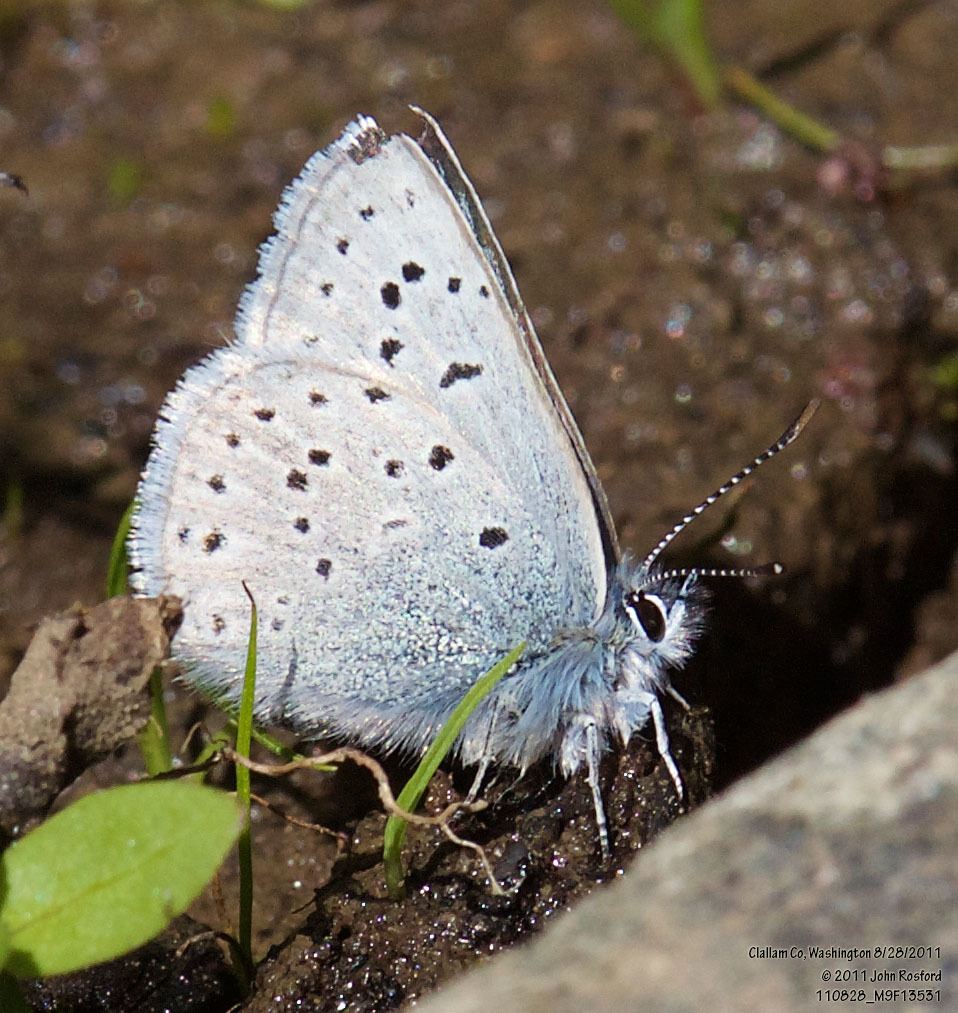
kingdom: Animalia
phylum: Arthropoda
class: Insecta
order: Lepidoptera
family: Lycaenidae
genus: Icaricia
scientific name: Icaricia saepiolus
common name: Greenish blue
